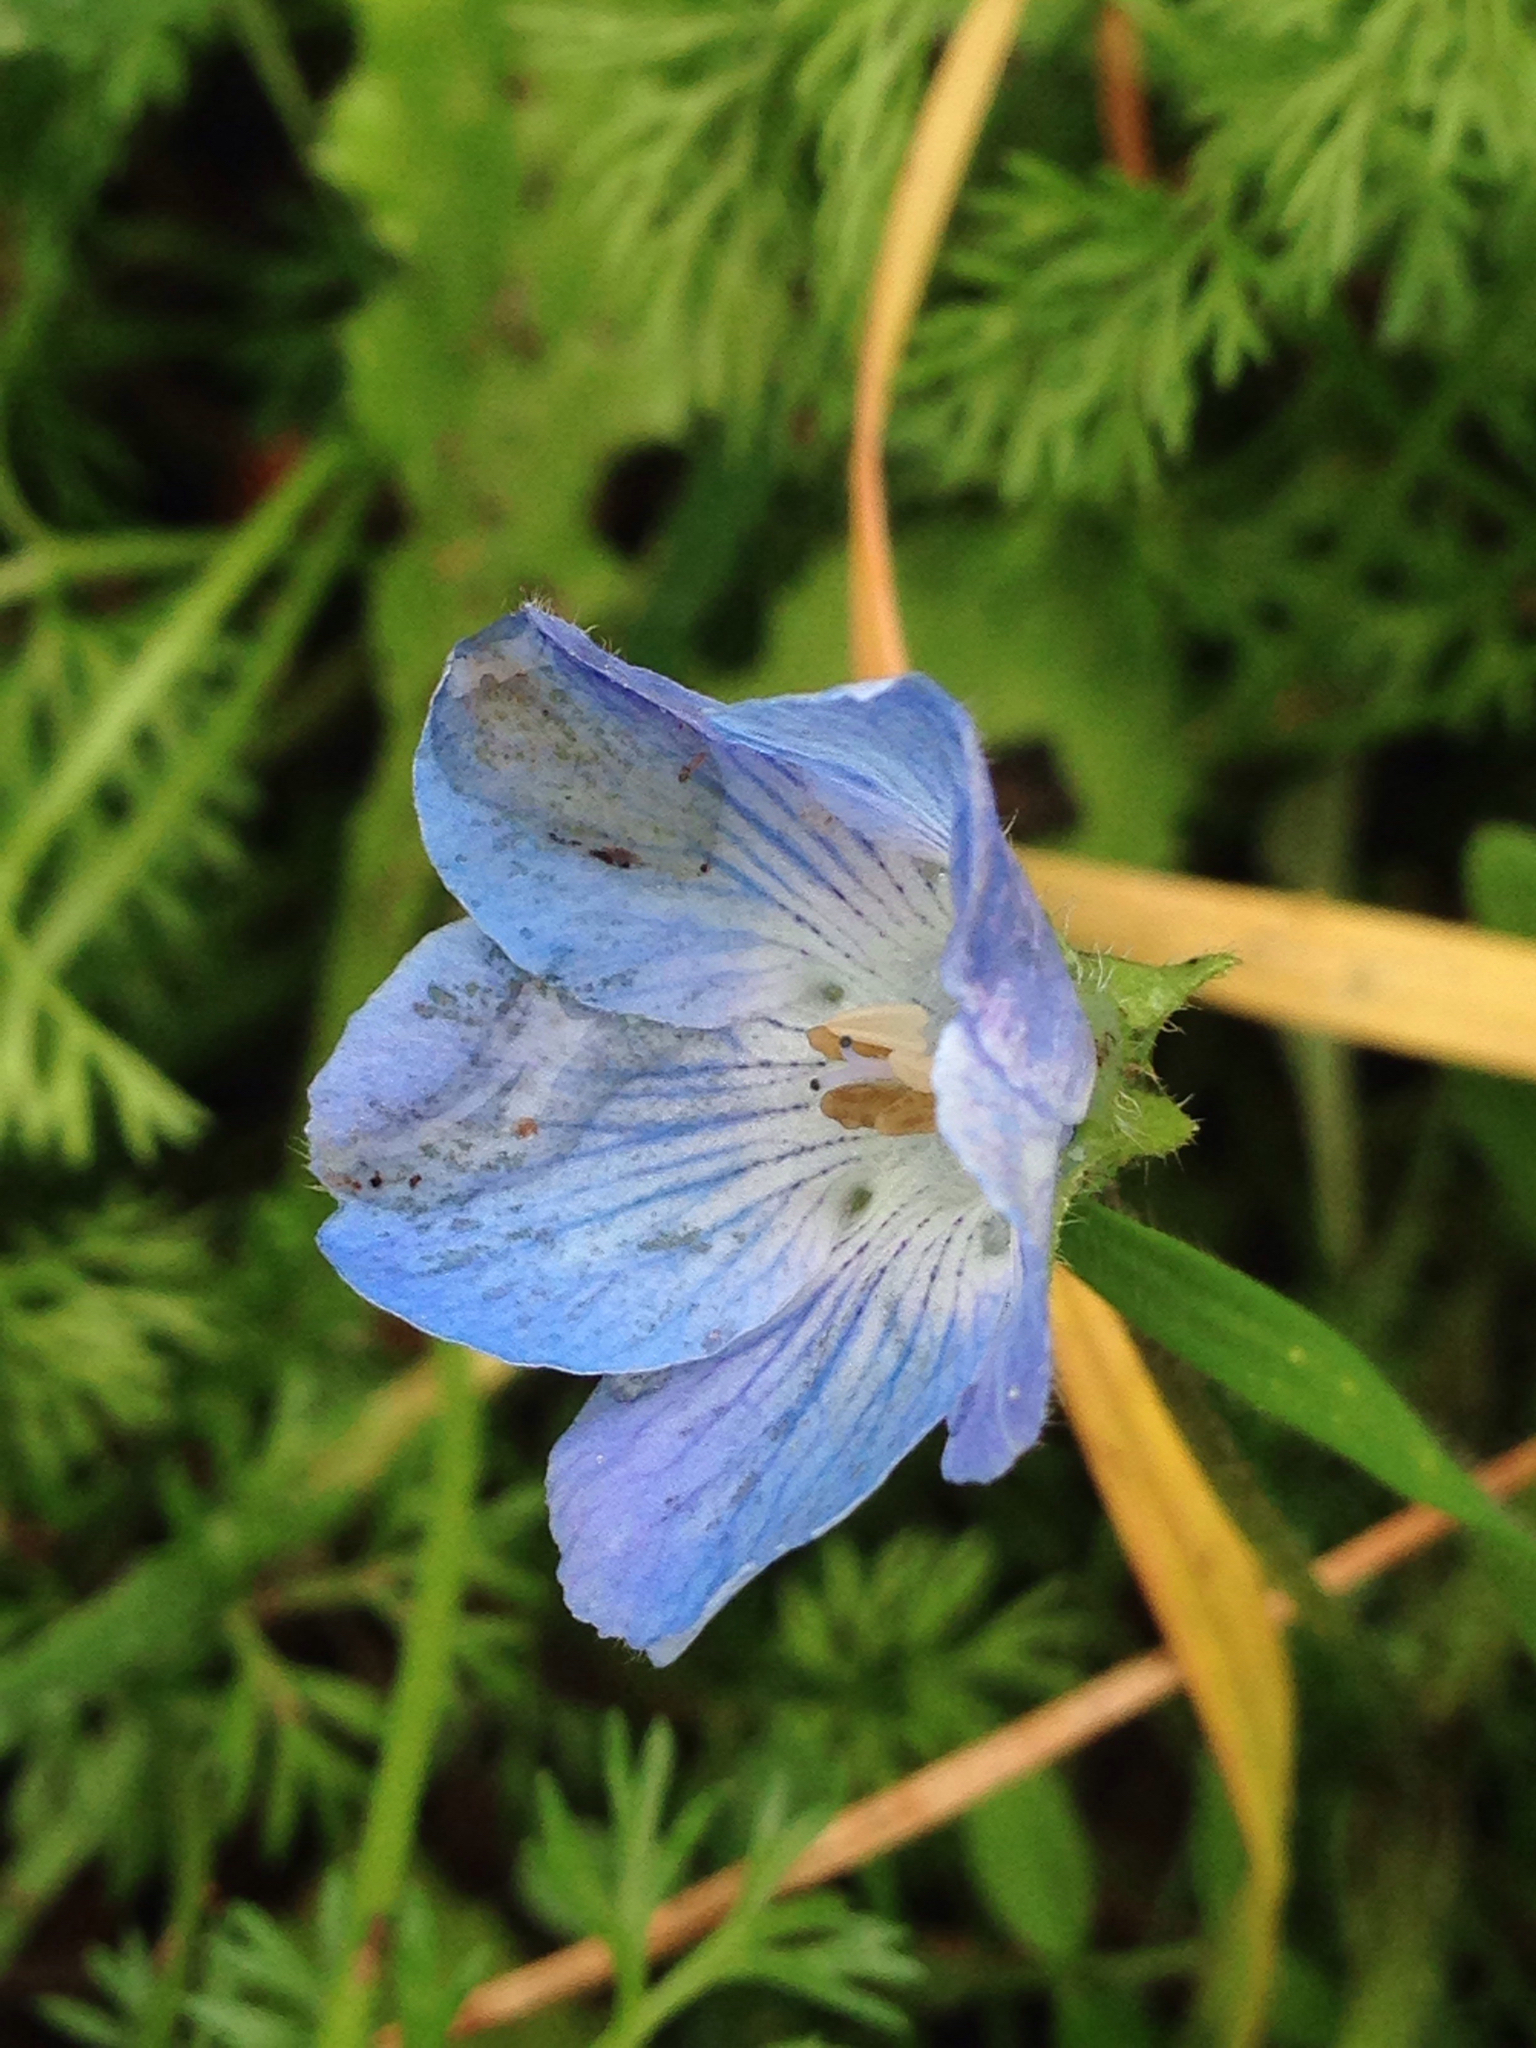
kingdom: Plantae
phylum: Tracheophyta
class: Magnoliopsida
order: Boraginales
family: Hydrophyllaceae
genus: Nemophila
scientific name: Nemophila menziesii
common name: Baby's-blue-eyes
